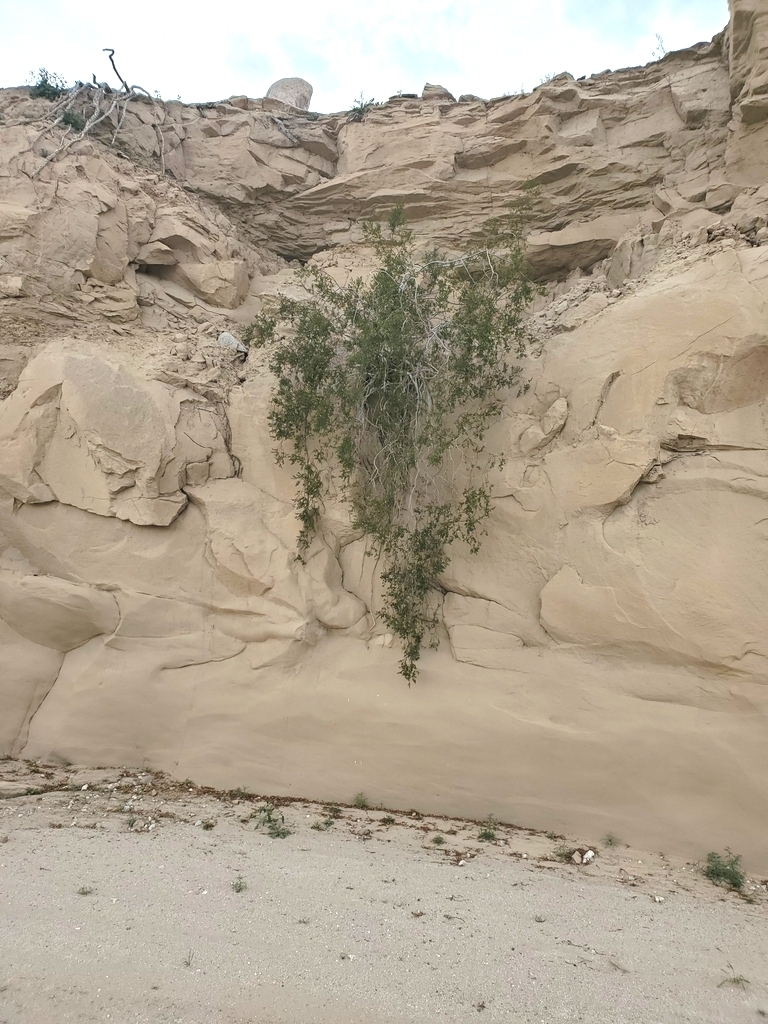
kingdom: Plantae
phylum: Tracheophyta
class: Magnoliopsida
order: Zygophyllales
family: Zygophyllaceae
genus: Larrea
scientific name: Larrea tridentata
